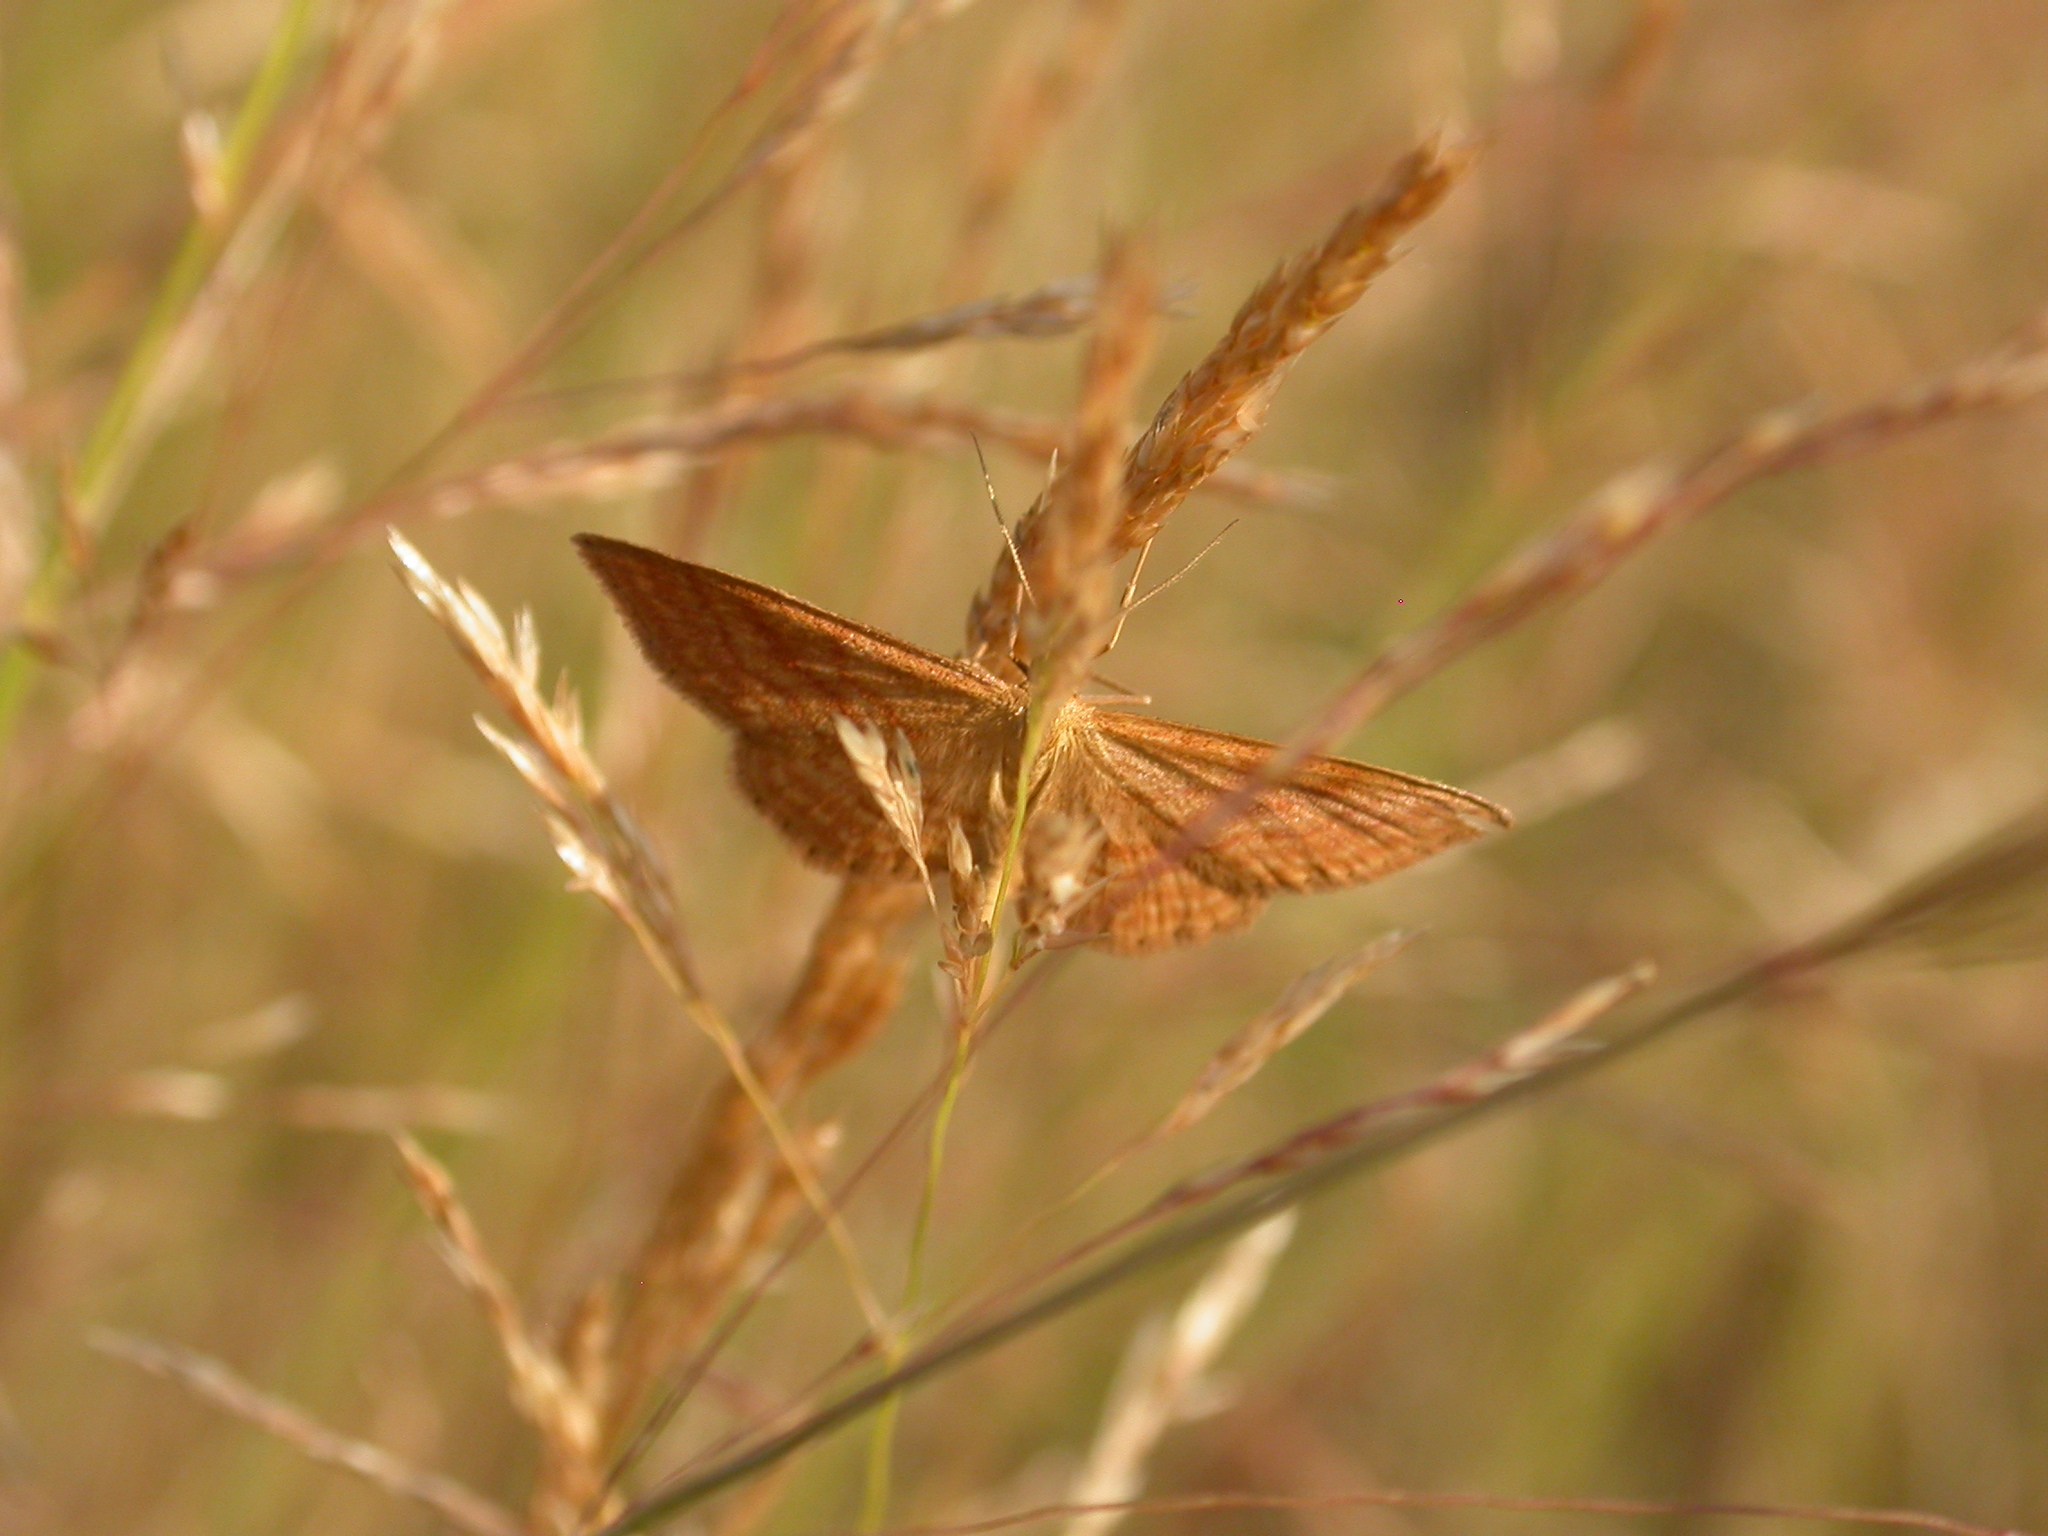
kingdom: Animalia
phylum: Arthropoda
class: Insecta
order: Lepidoptera
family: Geometridae
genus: Idaea
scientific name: Idaea ochrata
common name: Bright wave
